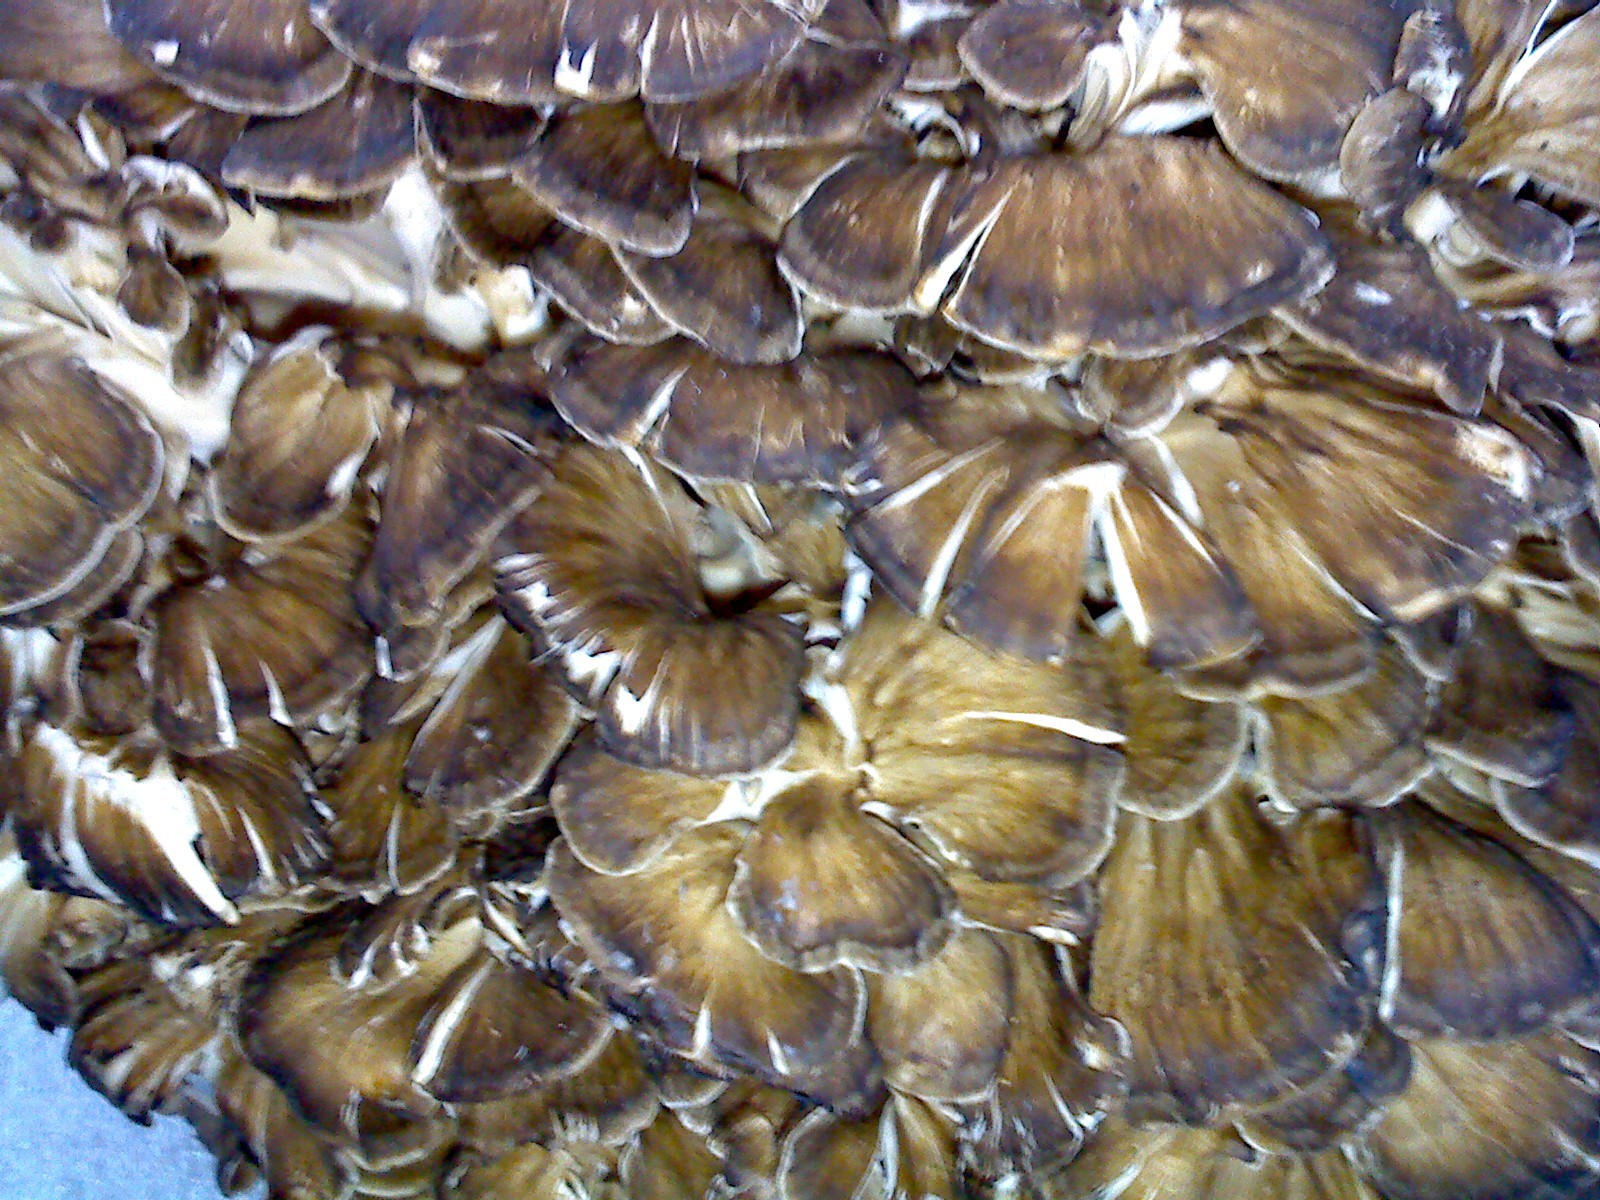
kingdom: Fungi
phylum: Basidiomycota
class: Agaricomycetes
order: Polyporales
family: Grifolaceae
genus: Grifola
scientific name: Grifola frondosa
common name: Hen of the woods
